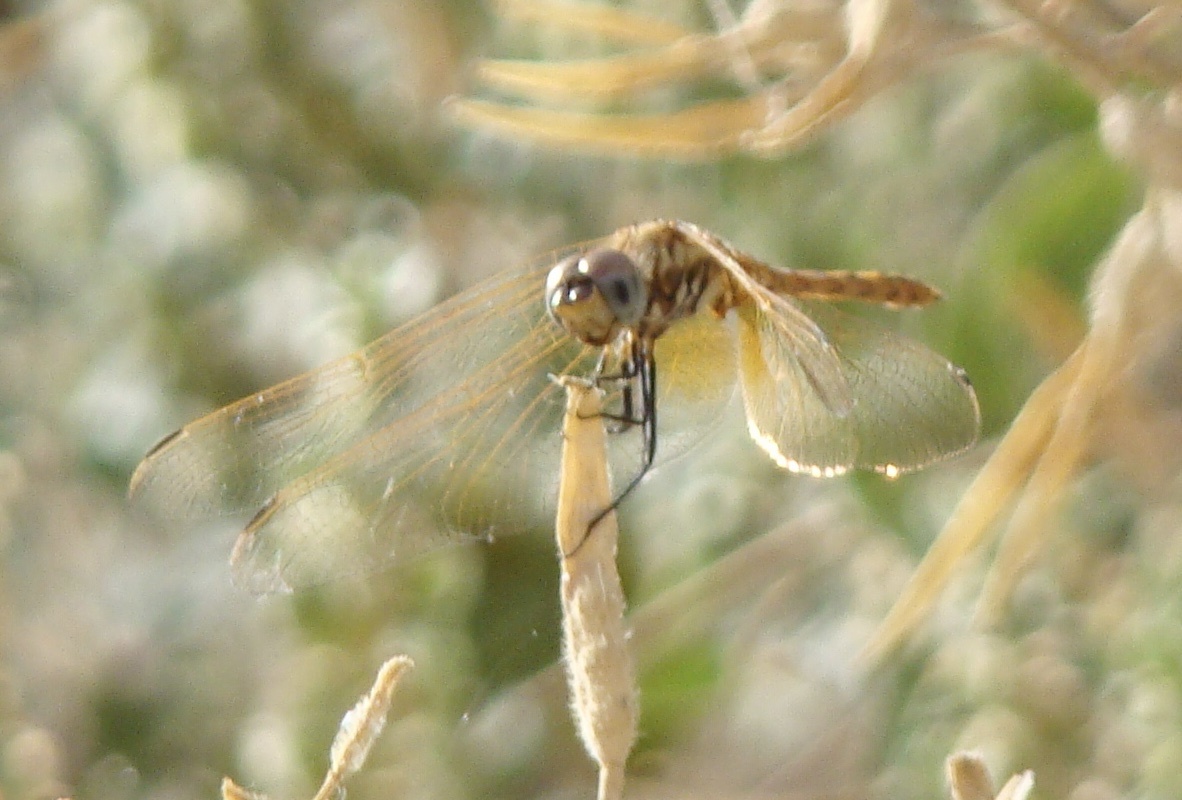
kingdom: Animalia
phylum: Arthropoda
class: Insecta
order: Odonata
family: Libellulidae
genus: Trithemis
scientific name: Trithemis annulata
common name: Violet dropwing
